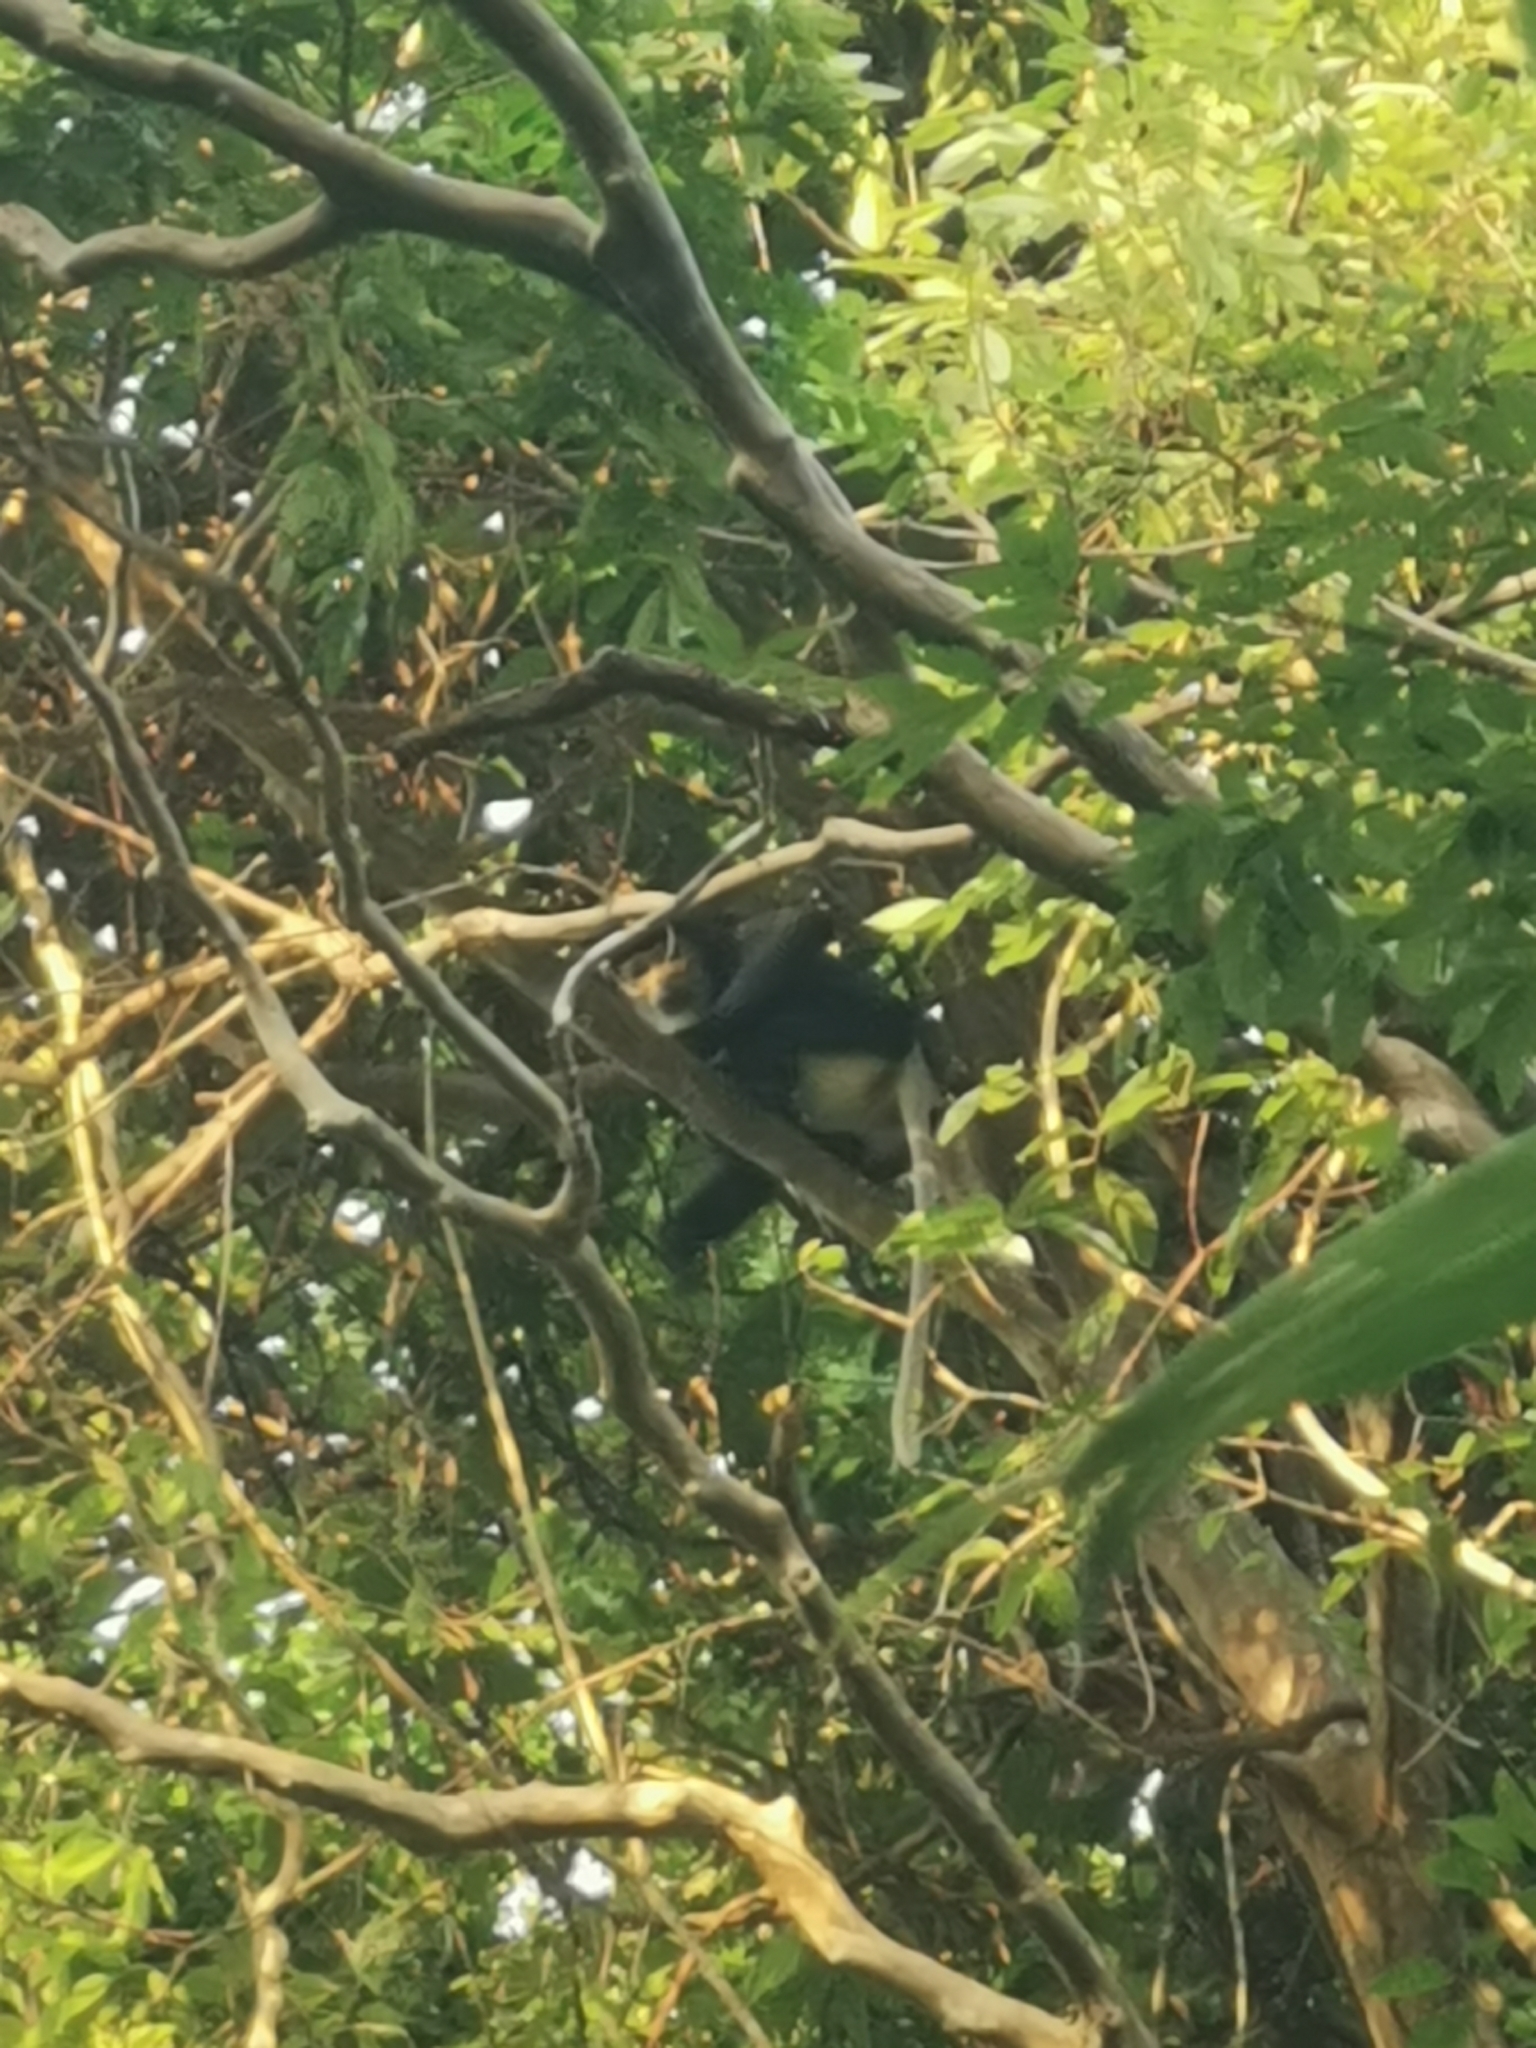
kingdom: Animalia
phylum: Chordata
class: Mammalia
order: Primates
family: Cercopithecidae
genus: Pygathrix
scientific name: Pygathrix nigripes
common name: Black-shanked douc
